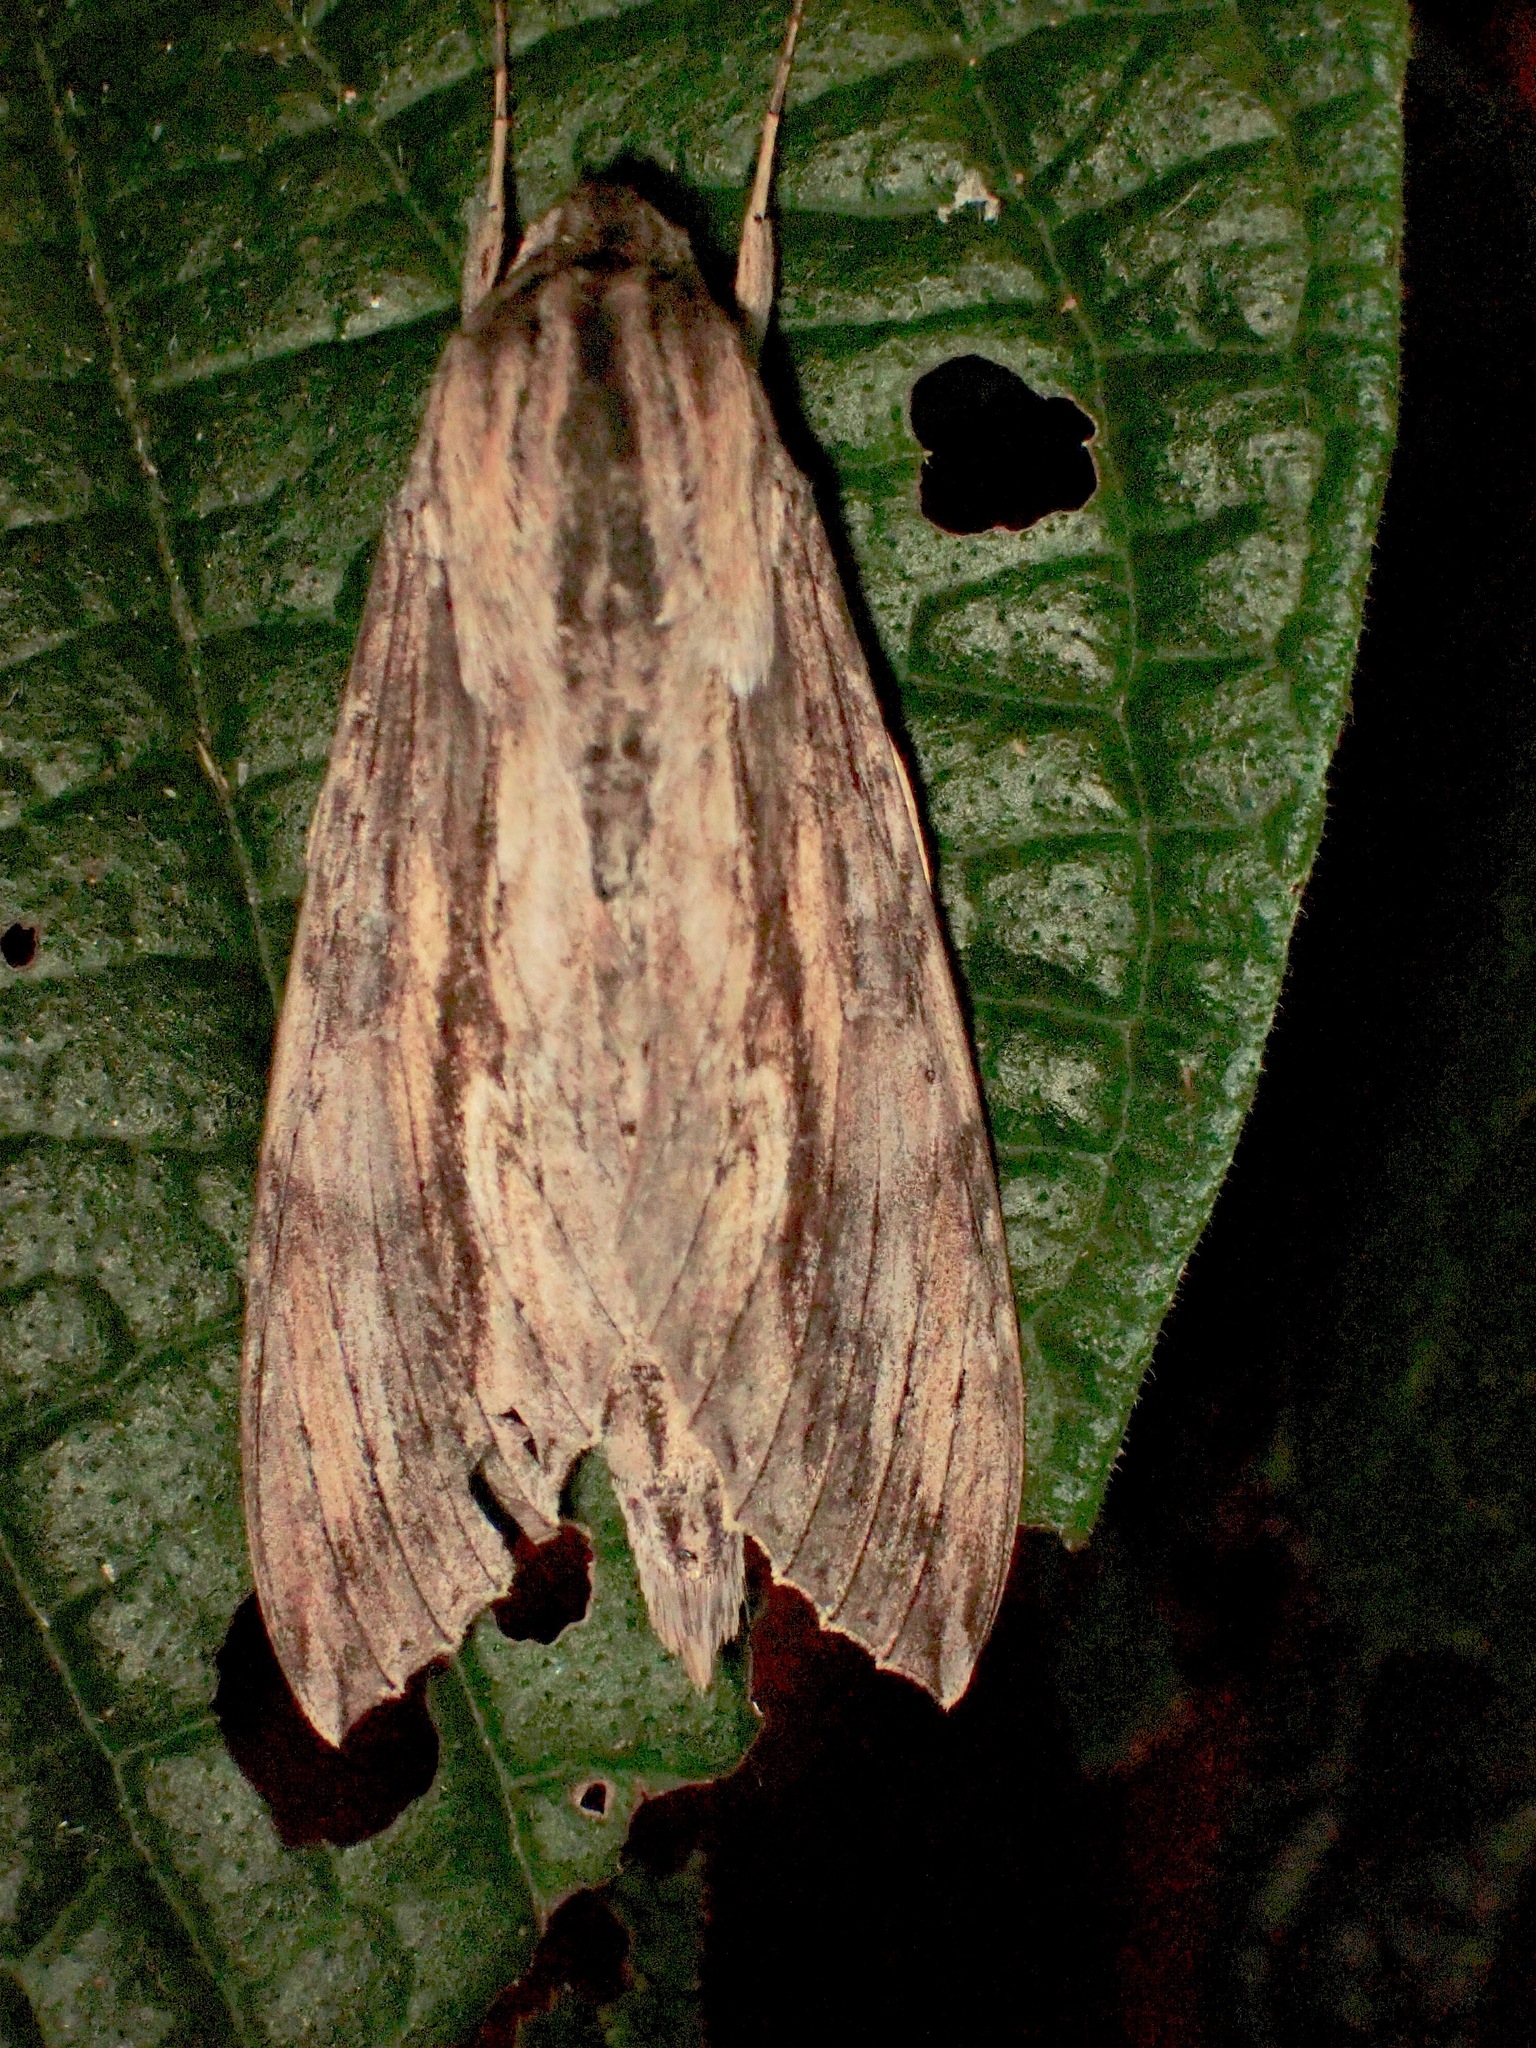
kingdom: Animalia
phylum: Arthropoda
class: Insecta
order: Lepidoptera
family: Sphingidae
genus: Erinnyis
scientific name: Erinnyis ello
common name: Ello sphinx
